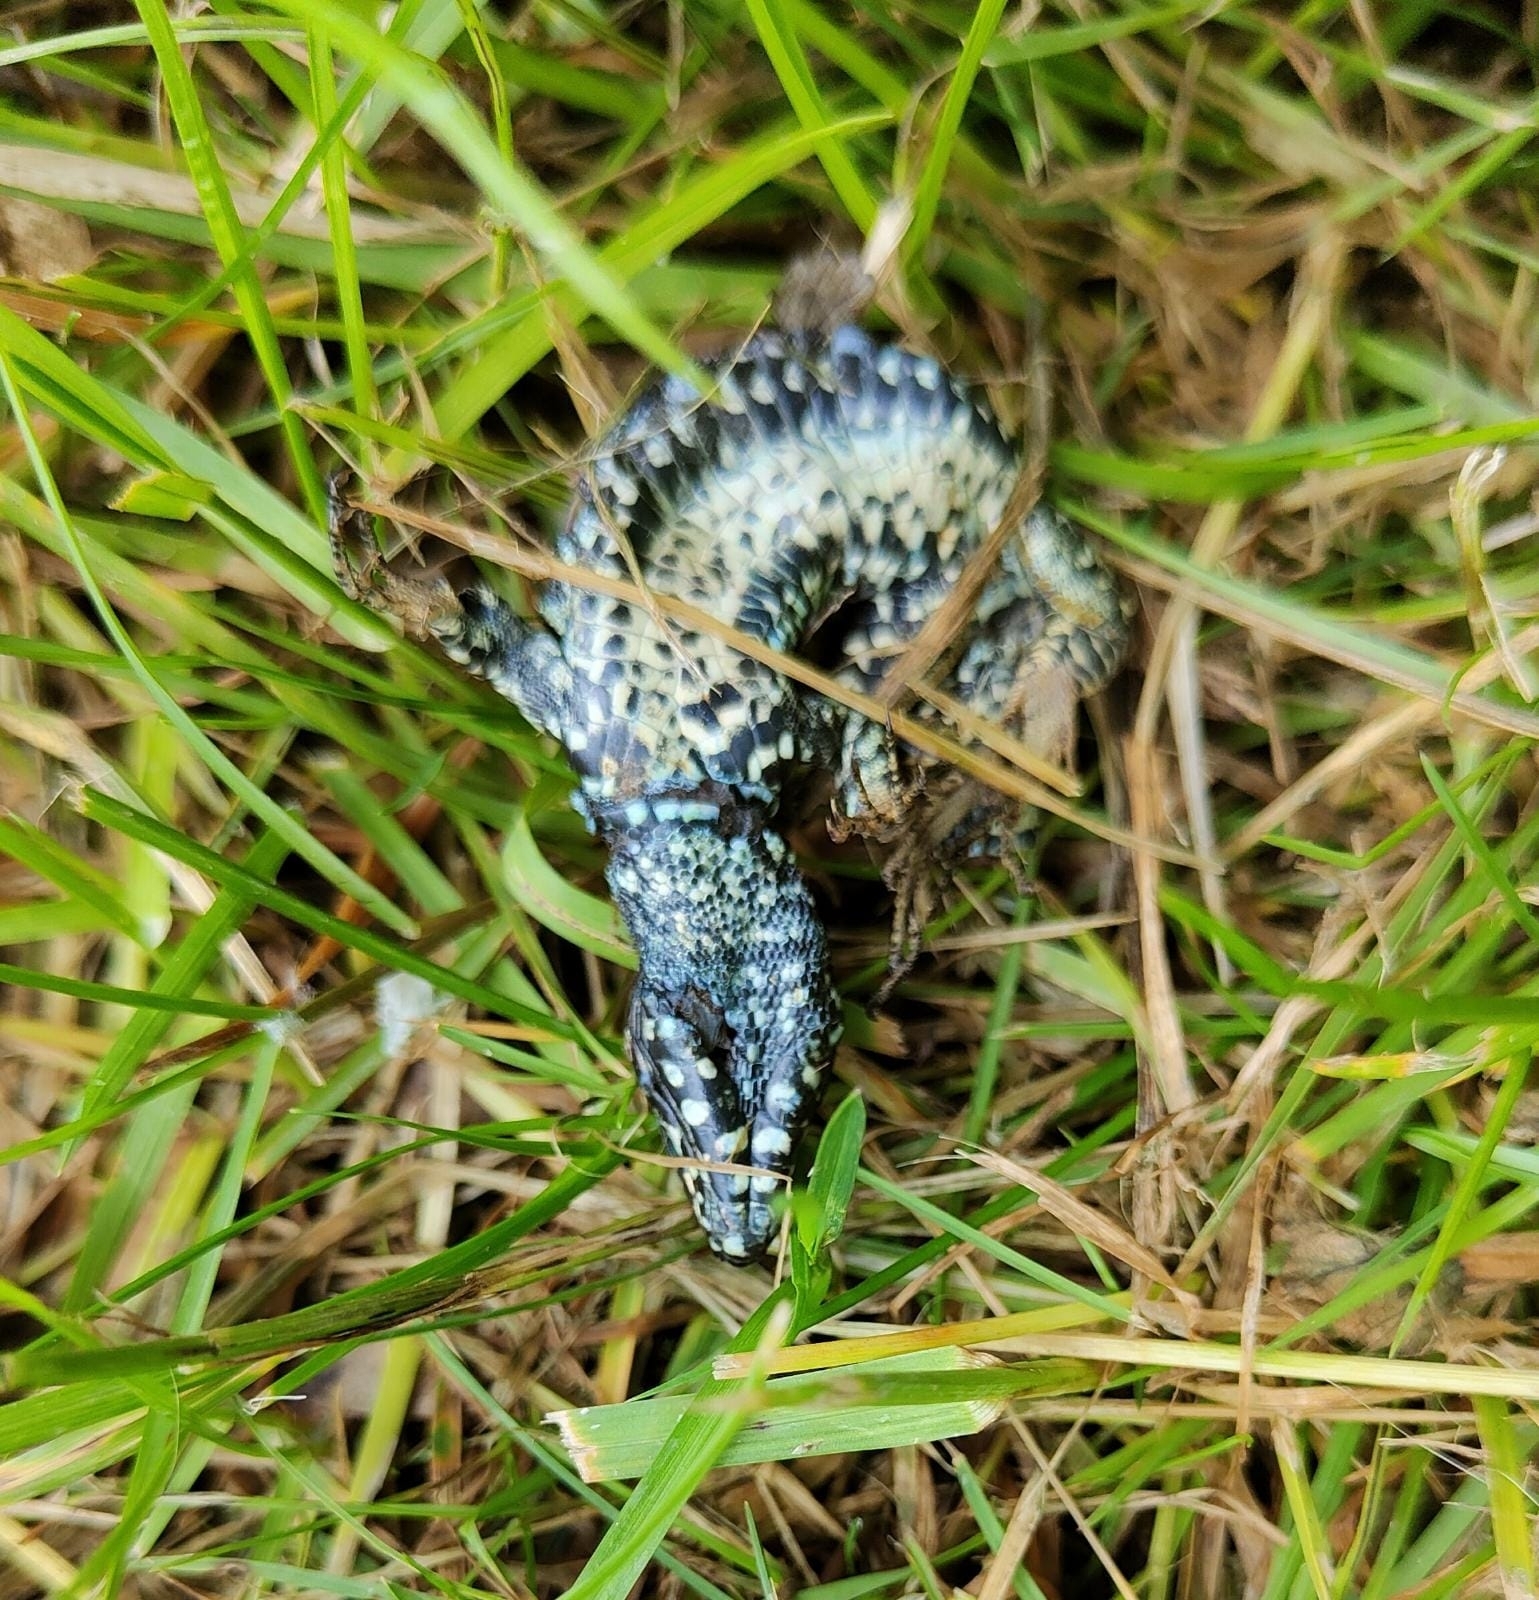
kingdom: Animalia
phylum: Chordata
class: Squamata
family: Lacertidae
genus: Podarcis
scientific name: Podarcis muralis
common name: Common wall lizard
